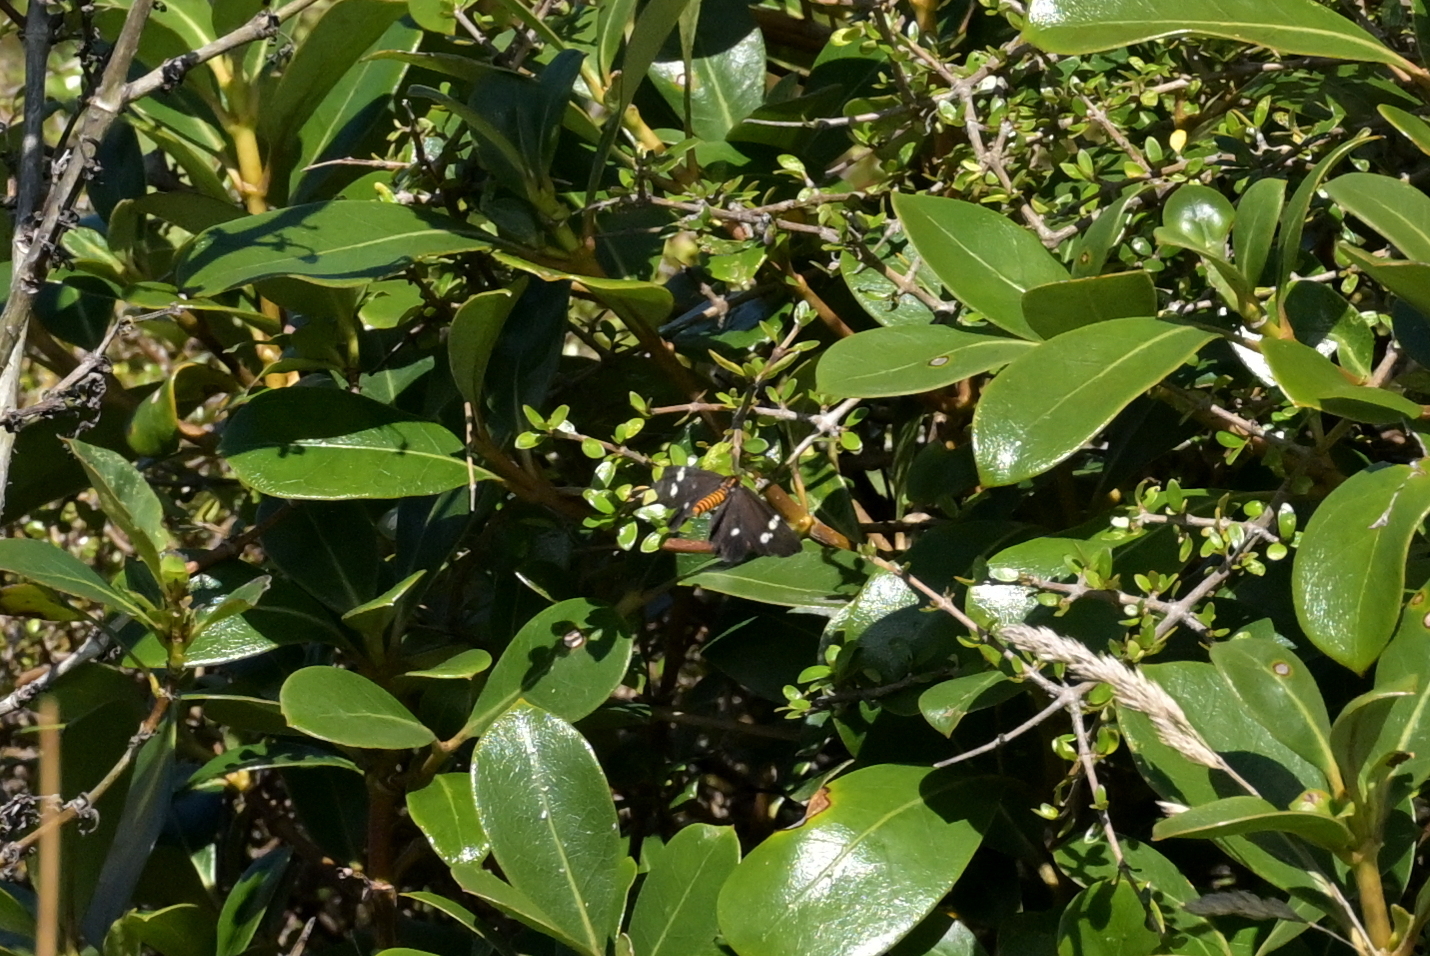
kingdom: Animalia
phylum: Arthropoda
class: Insecta
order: Lepidoptera
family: Erebidae
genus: Nyctemera
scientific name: Nyctemera annulatum
